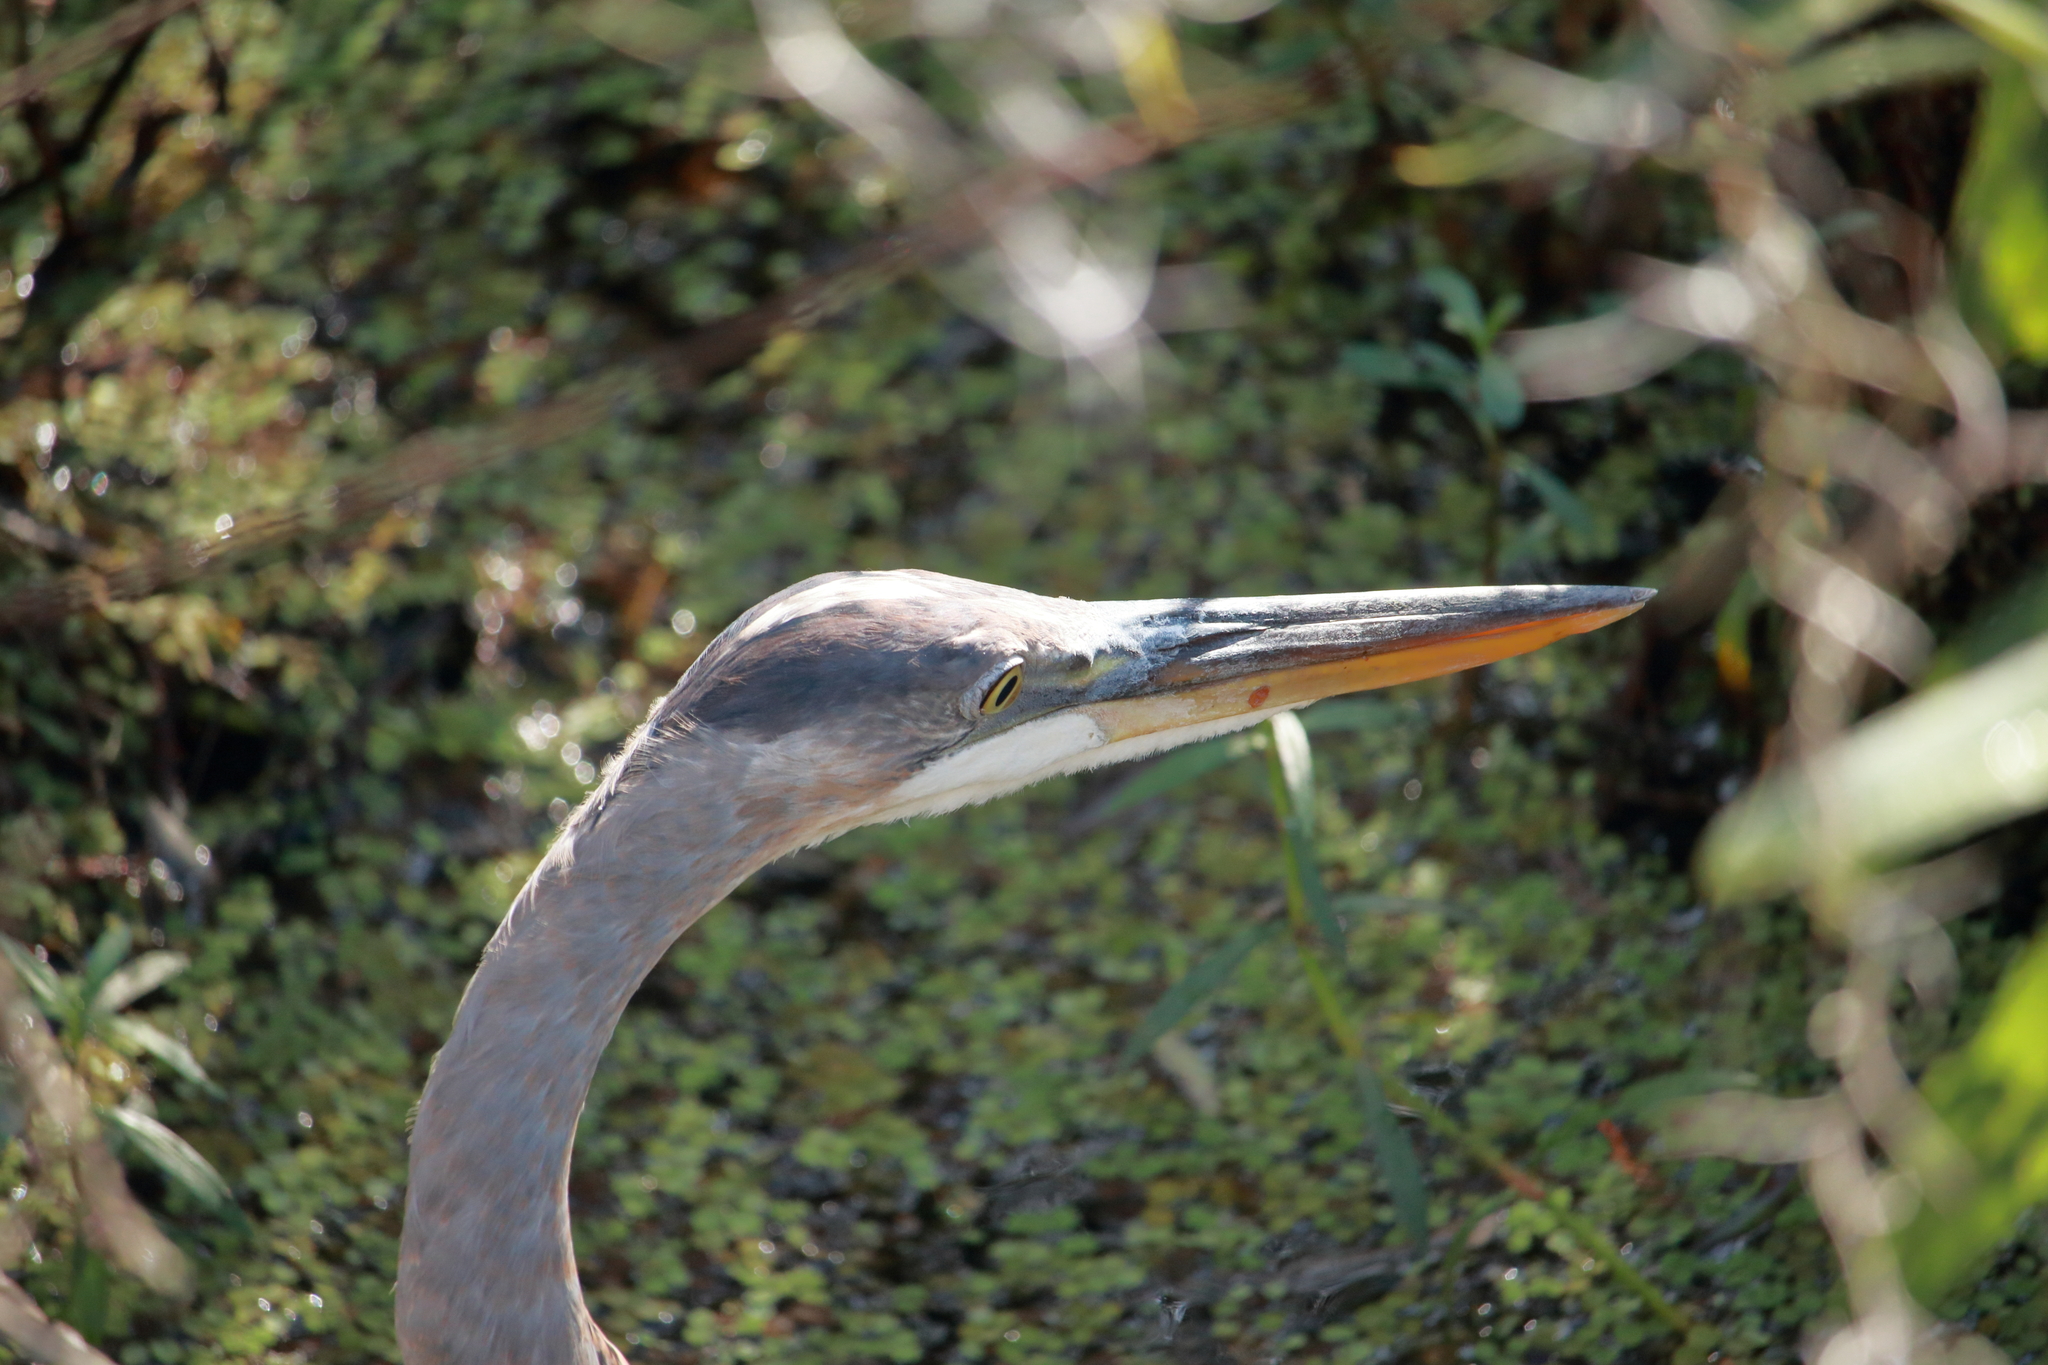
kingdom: Animalia
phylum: Chordata
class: Aves
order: Pelecaniformes
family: Ardeidae
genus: Ardea
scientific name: Ardea herodias
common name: Great blue heron
